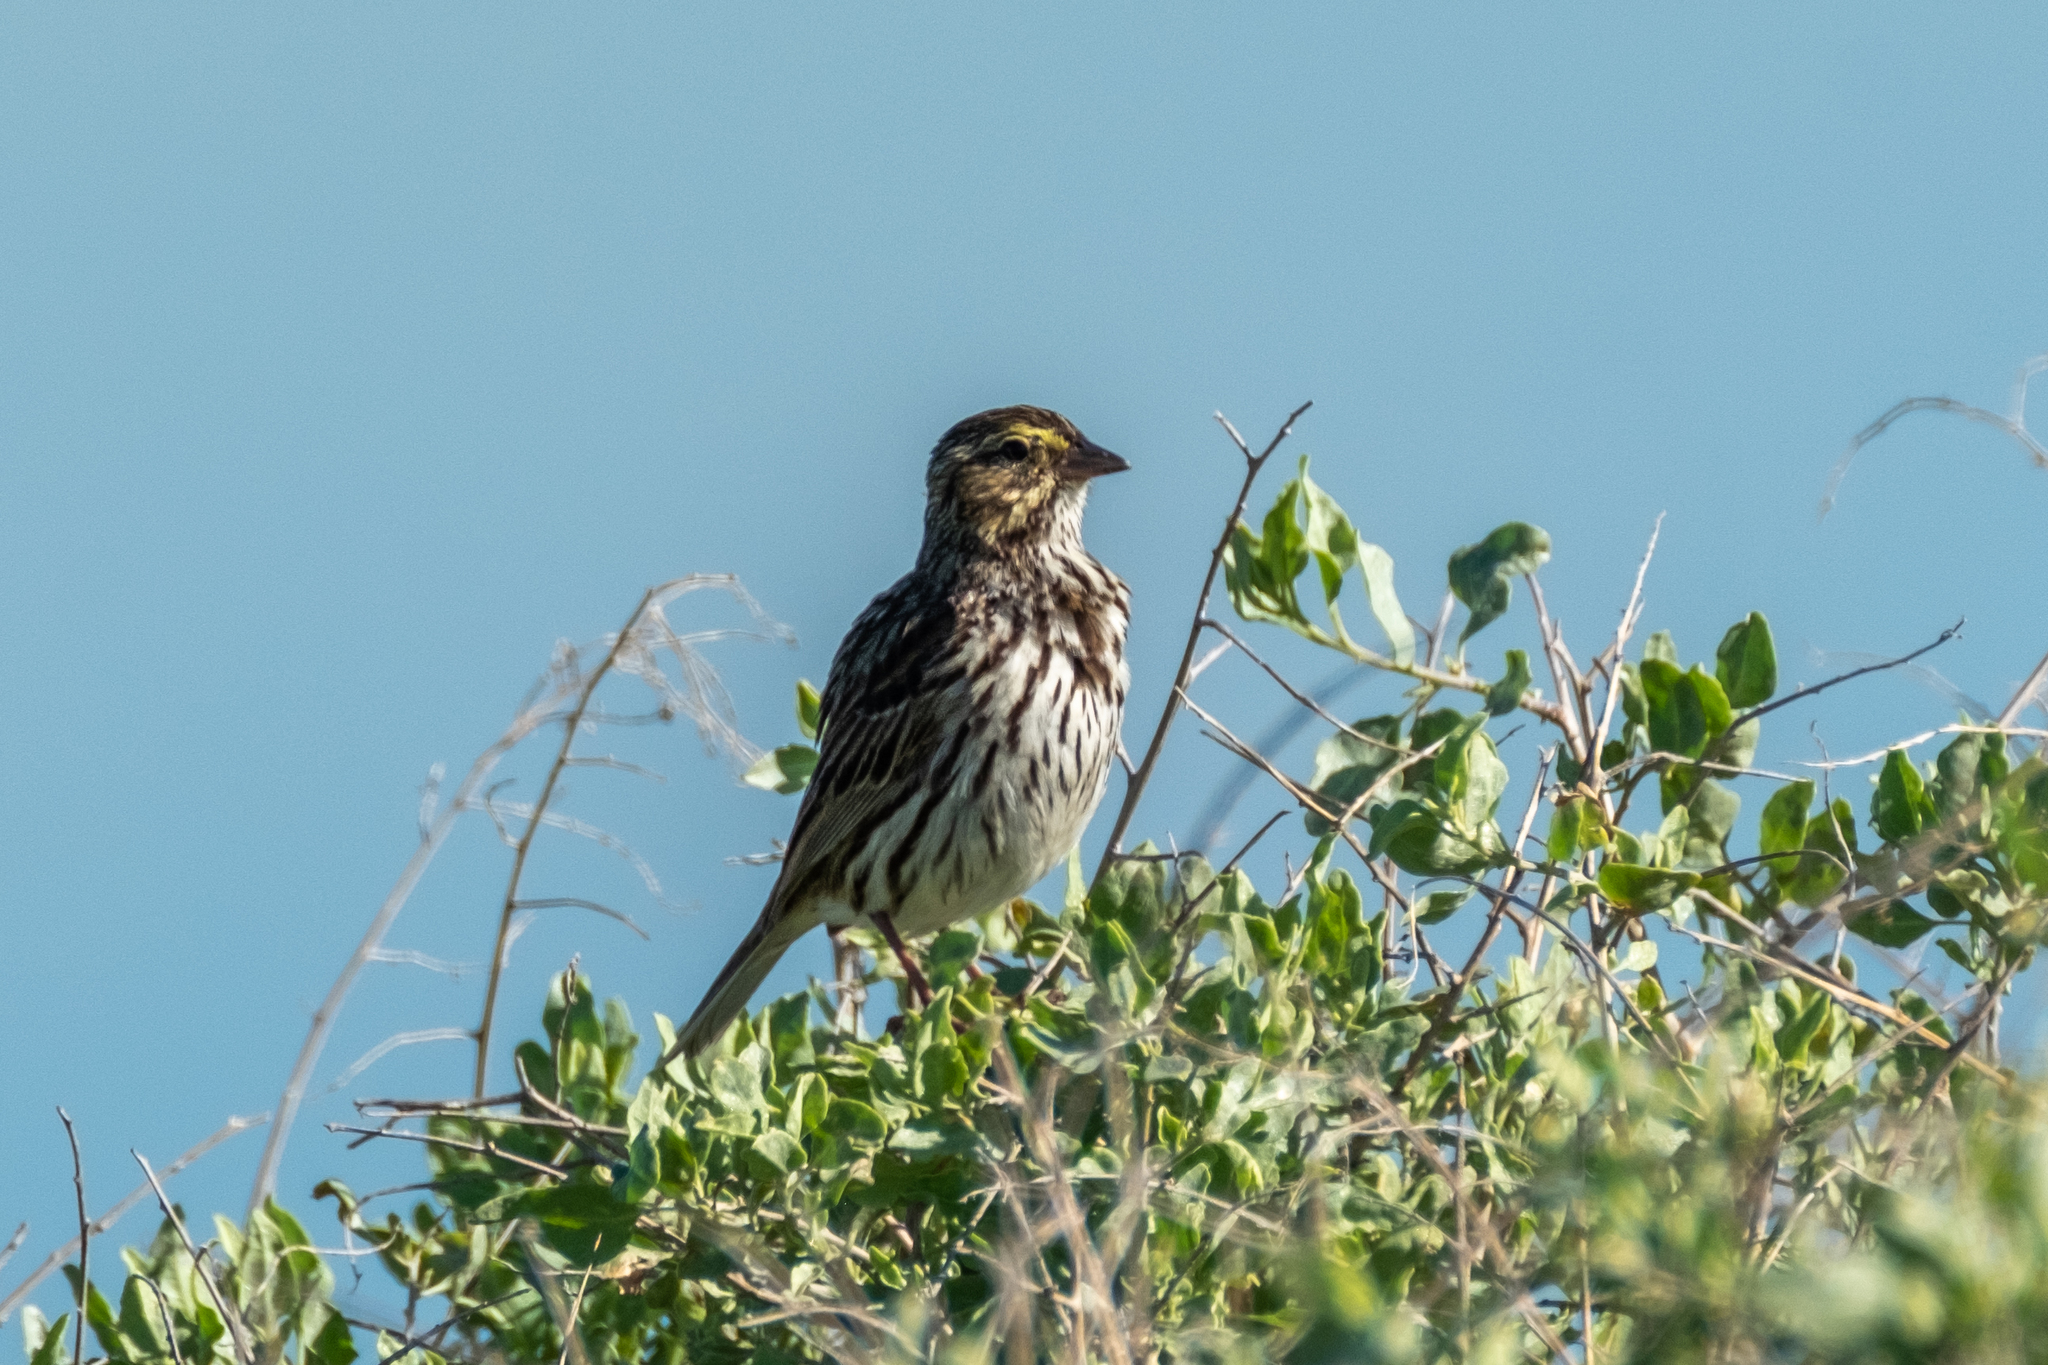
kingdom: Animalia
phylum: Chordata
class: Aves
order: Passeriformes
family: Passerellidae
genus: Passerculus
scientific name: Passerculus sandwichensis
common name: Savannah sparrow
